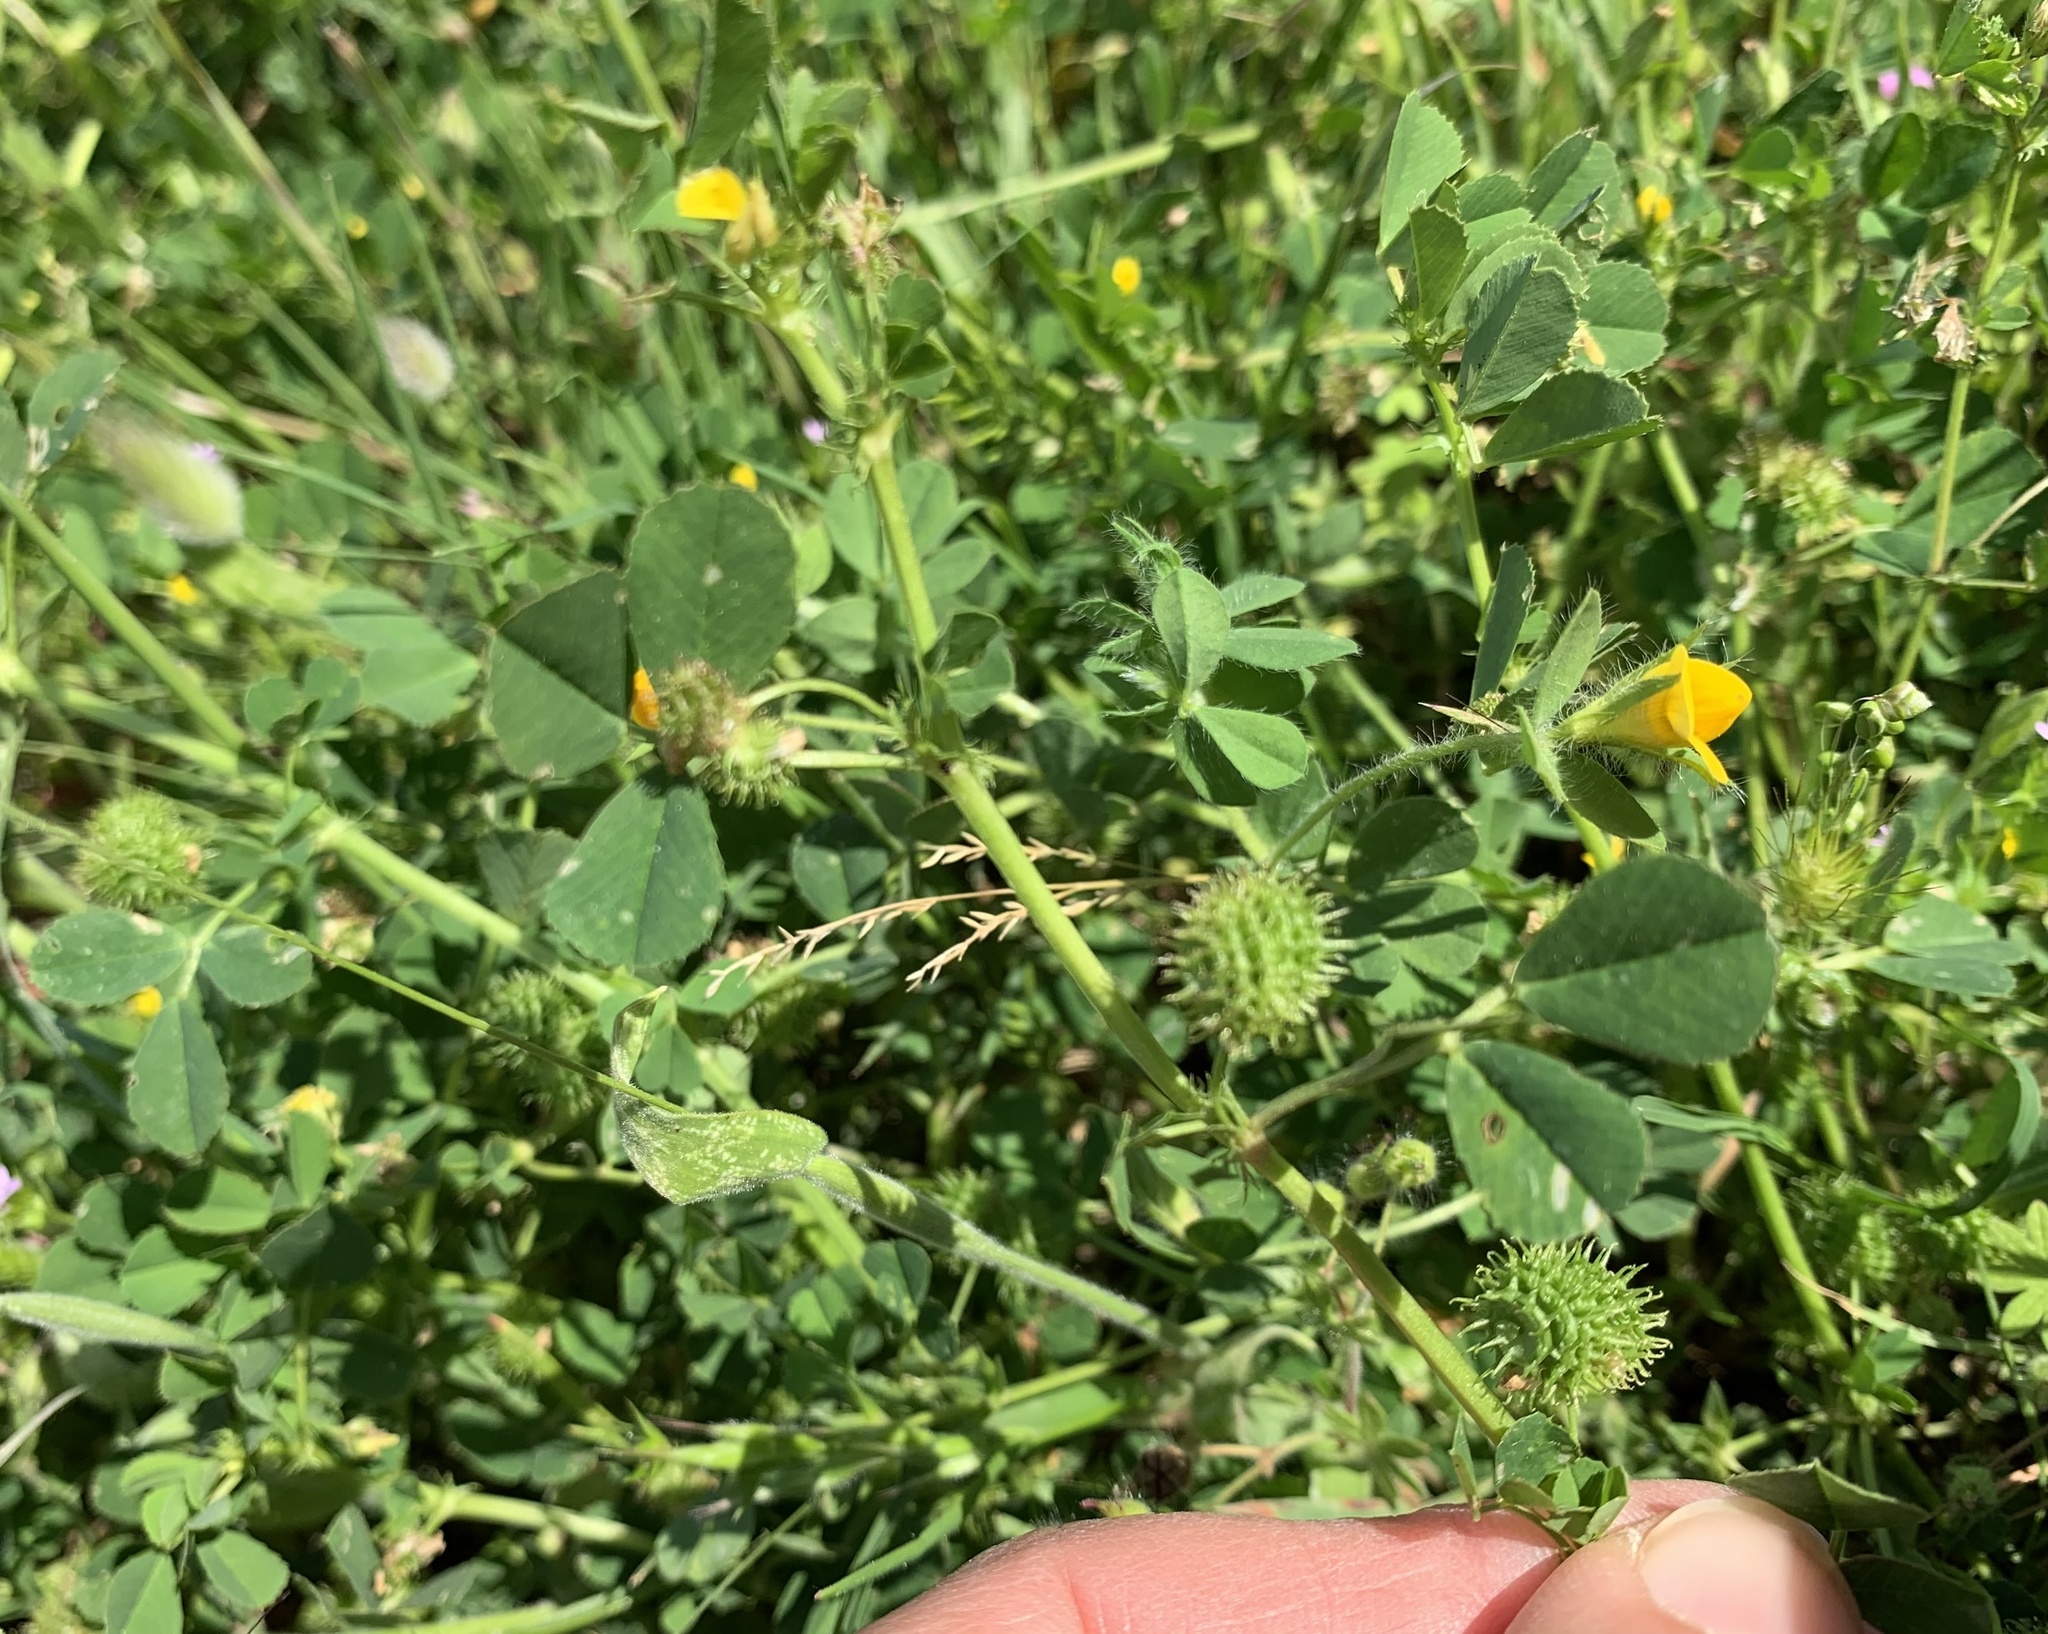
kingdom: Plantae
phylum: Tracheophyta
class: Magnoliopsida
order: Fabales
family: Fabaceae
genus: Medicago
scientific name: Medicago polymorpha
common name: Burclover
